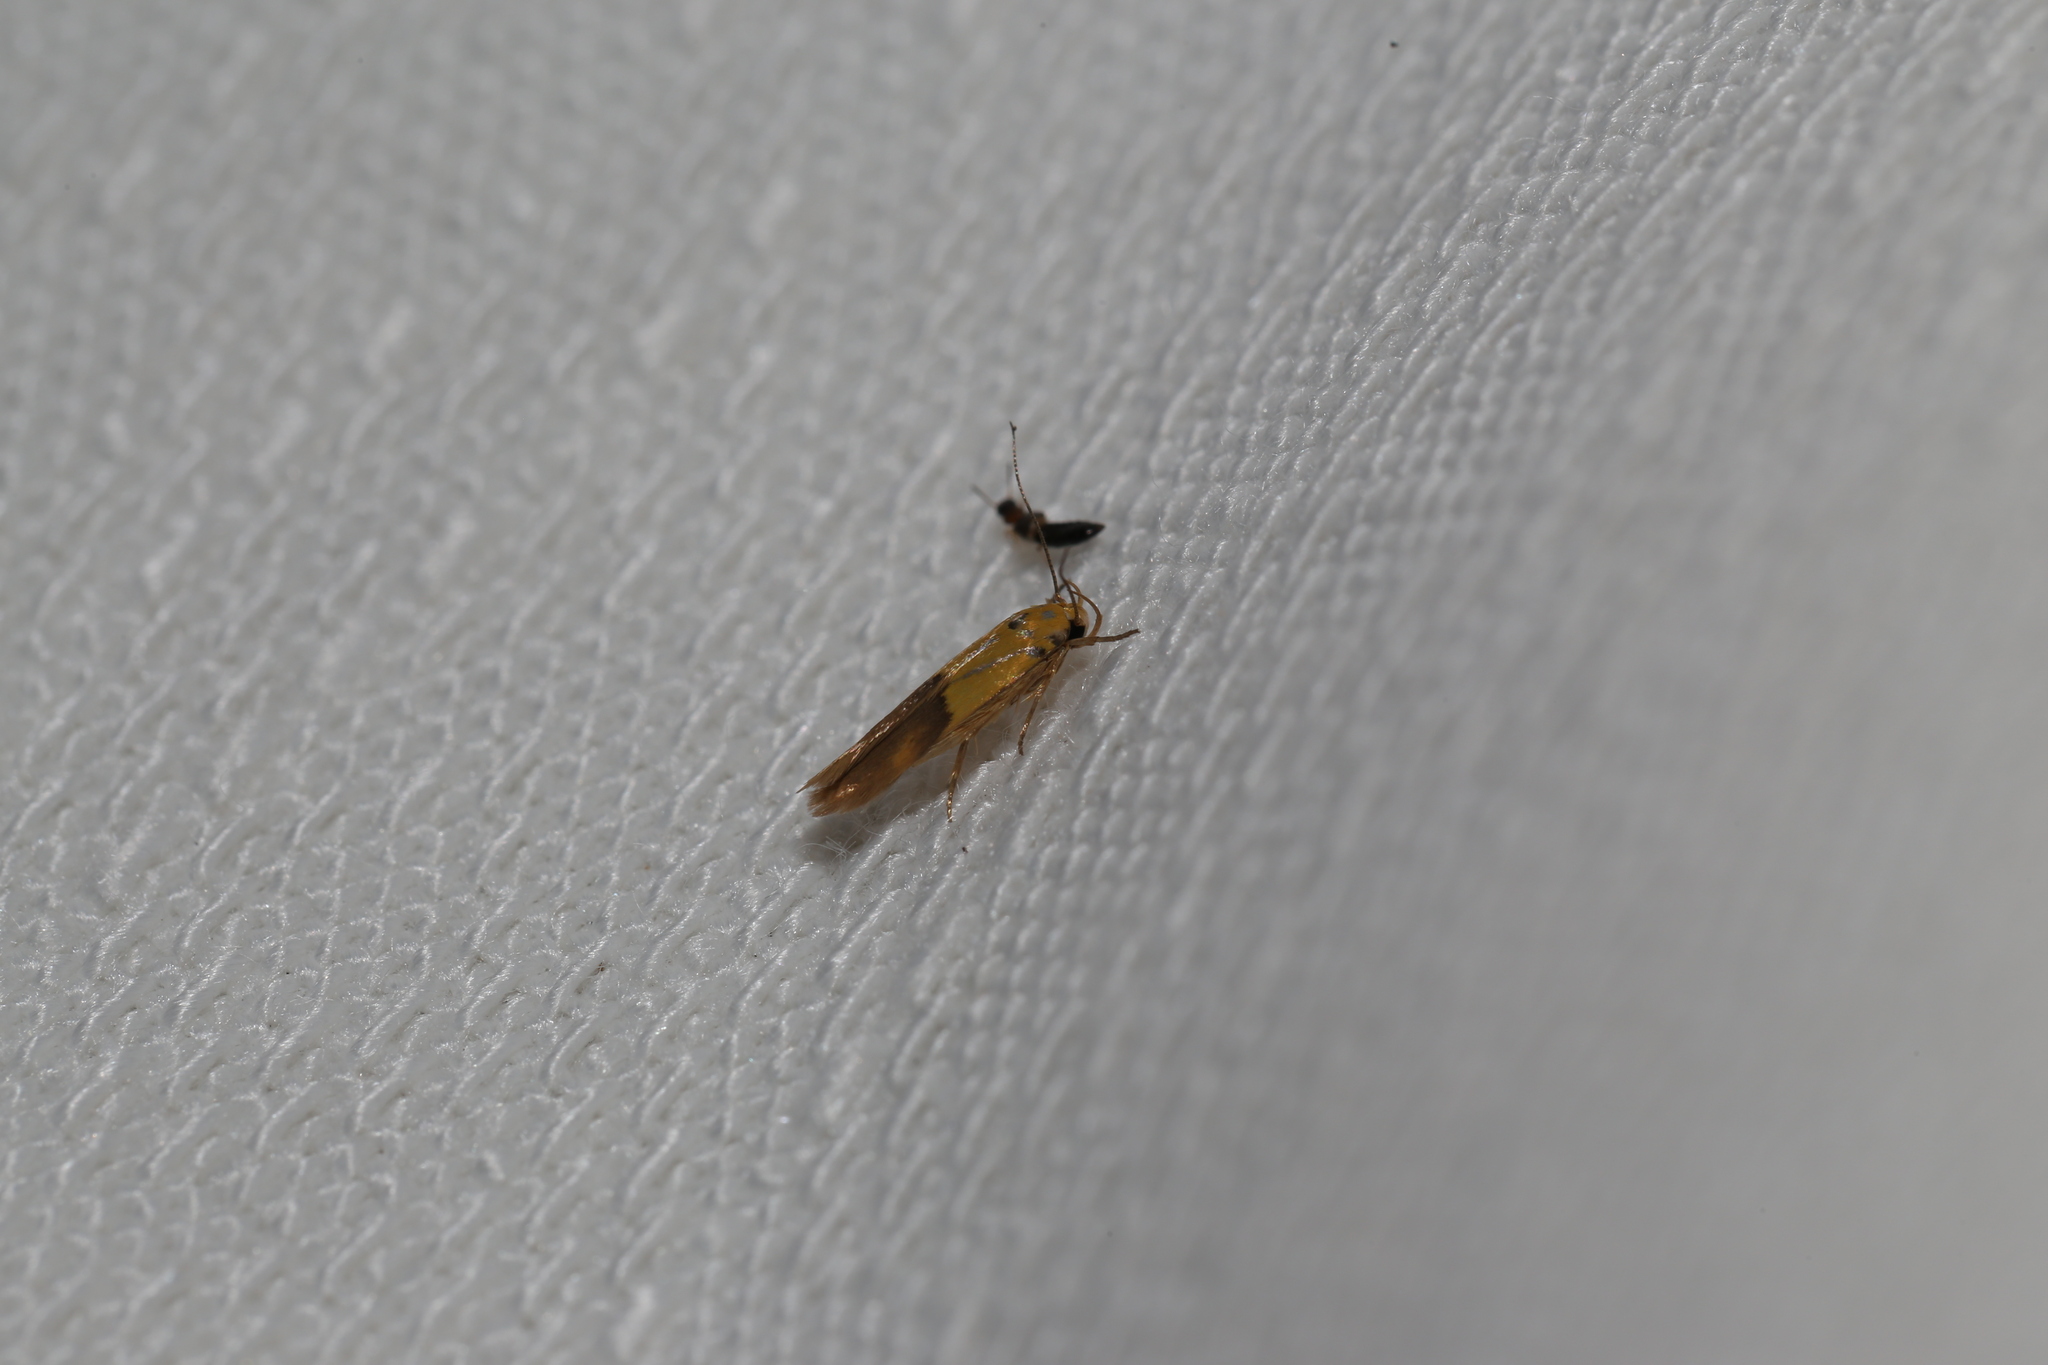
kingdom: Animalia
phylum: Arthropoda
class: Insecta
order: Lepidoptera
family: Stathmopodidae
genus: Stathmopoda
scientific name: Stathmopoda auriferella
